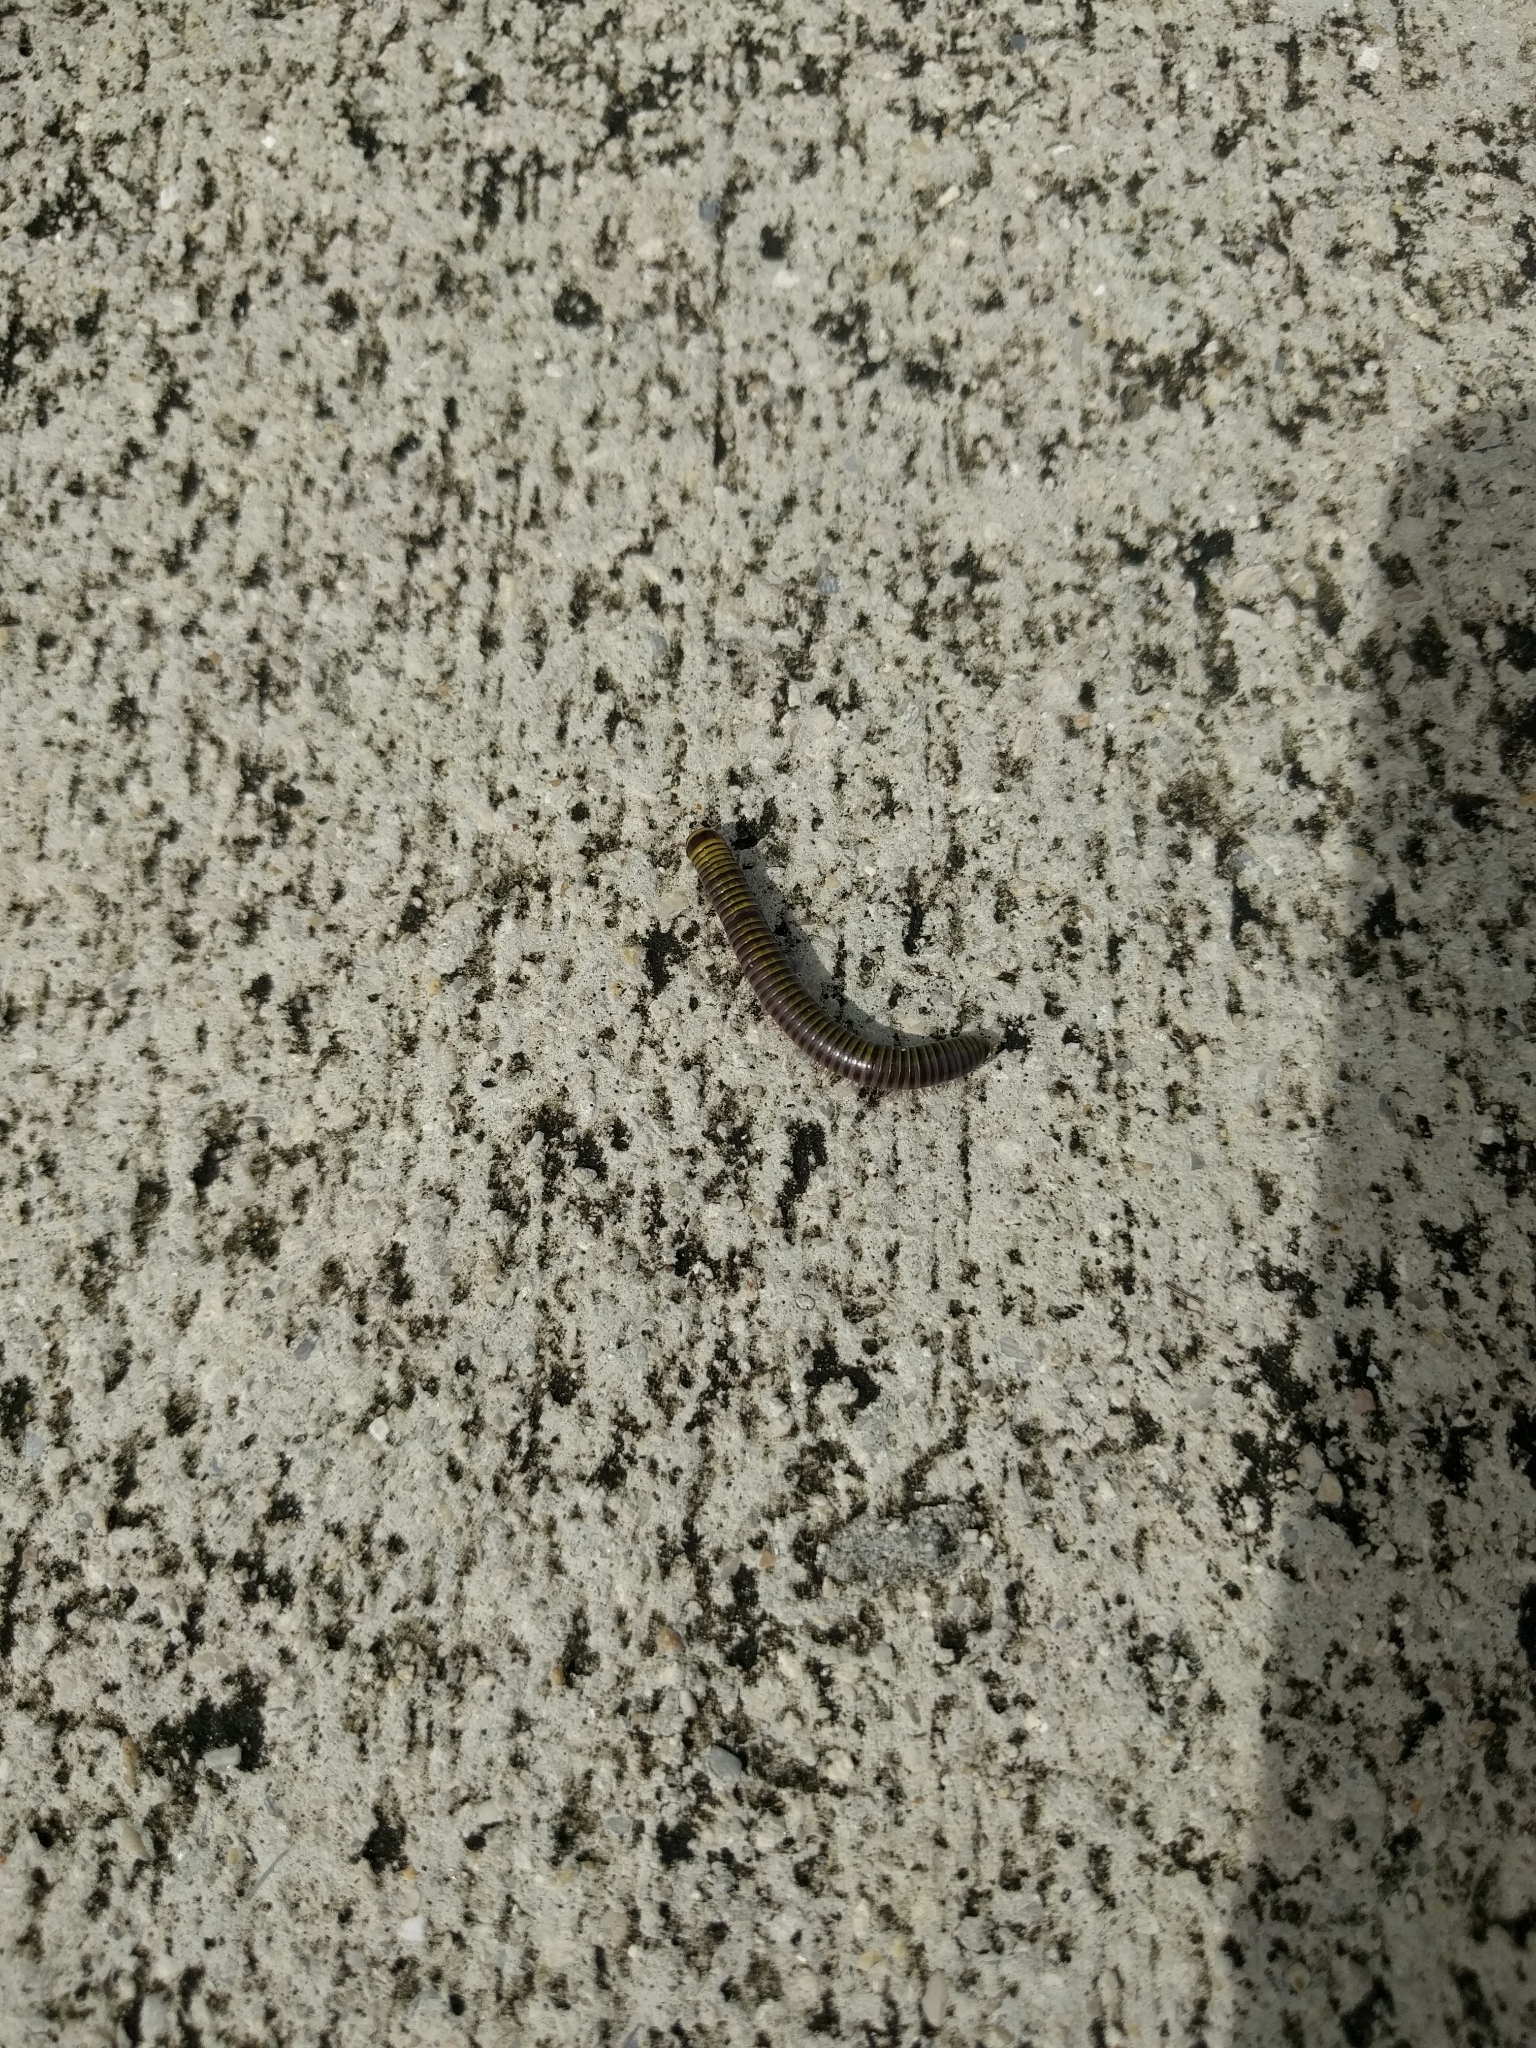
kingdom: Animalia
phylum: Arthropoda
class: Diplopoda
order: Spirobolida
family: Rhinocricidae
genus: Anadenobolus
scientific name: Anadenobolus monilicornis
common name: Caribbean millipede
